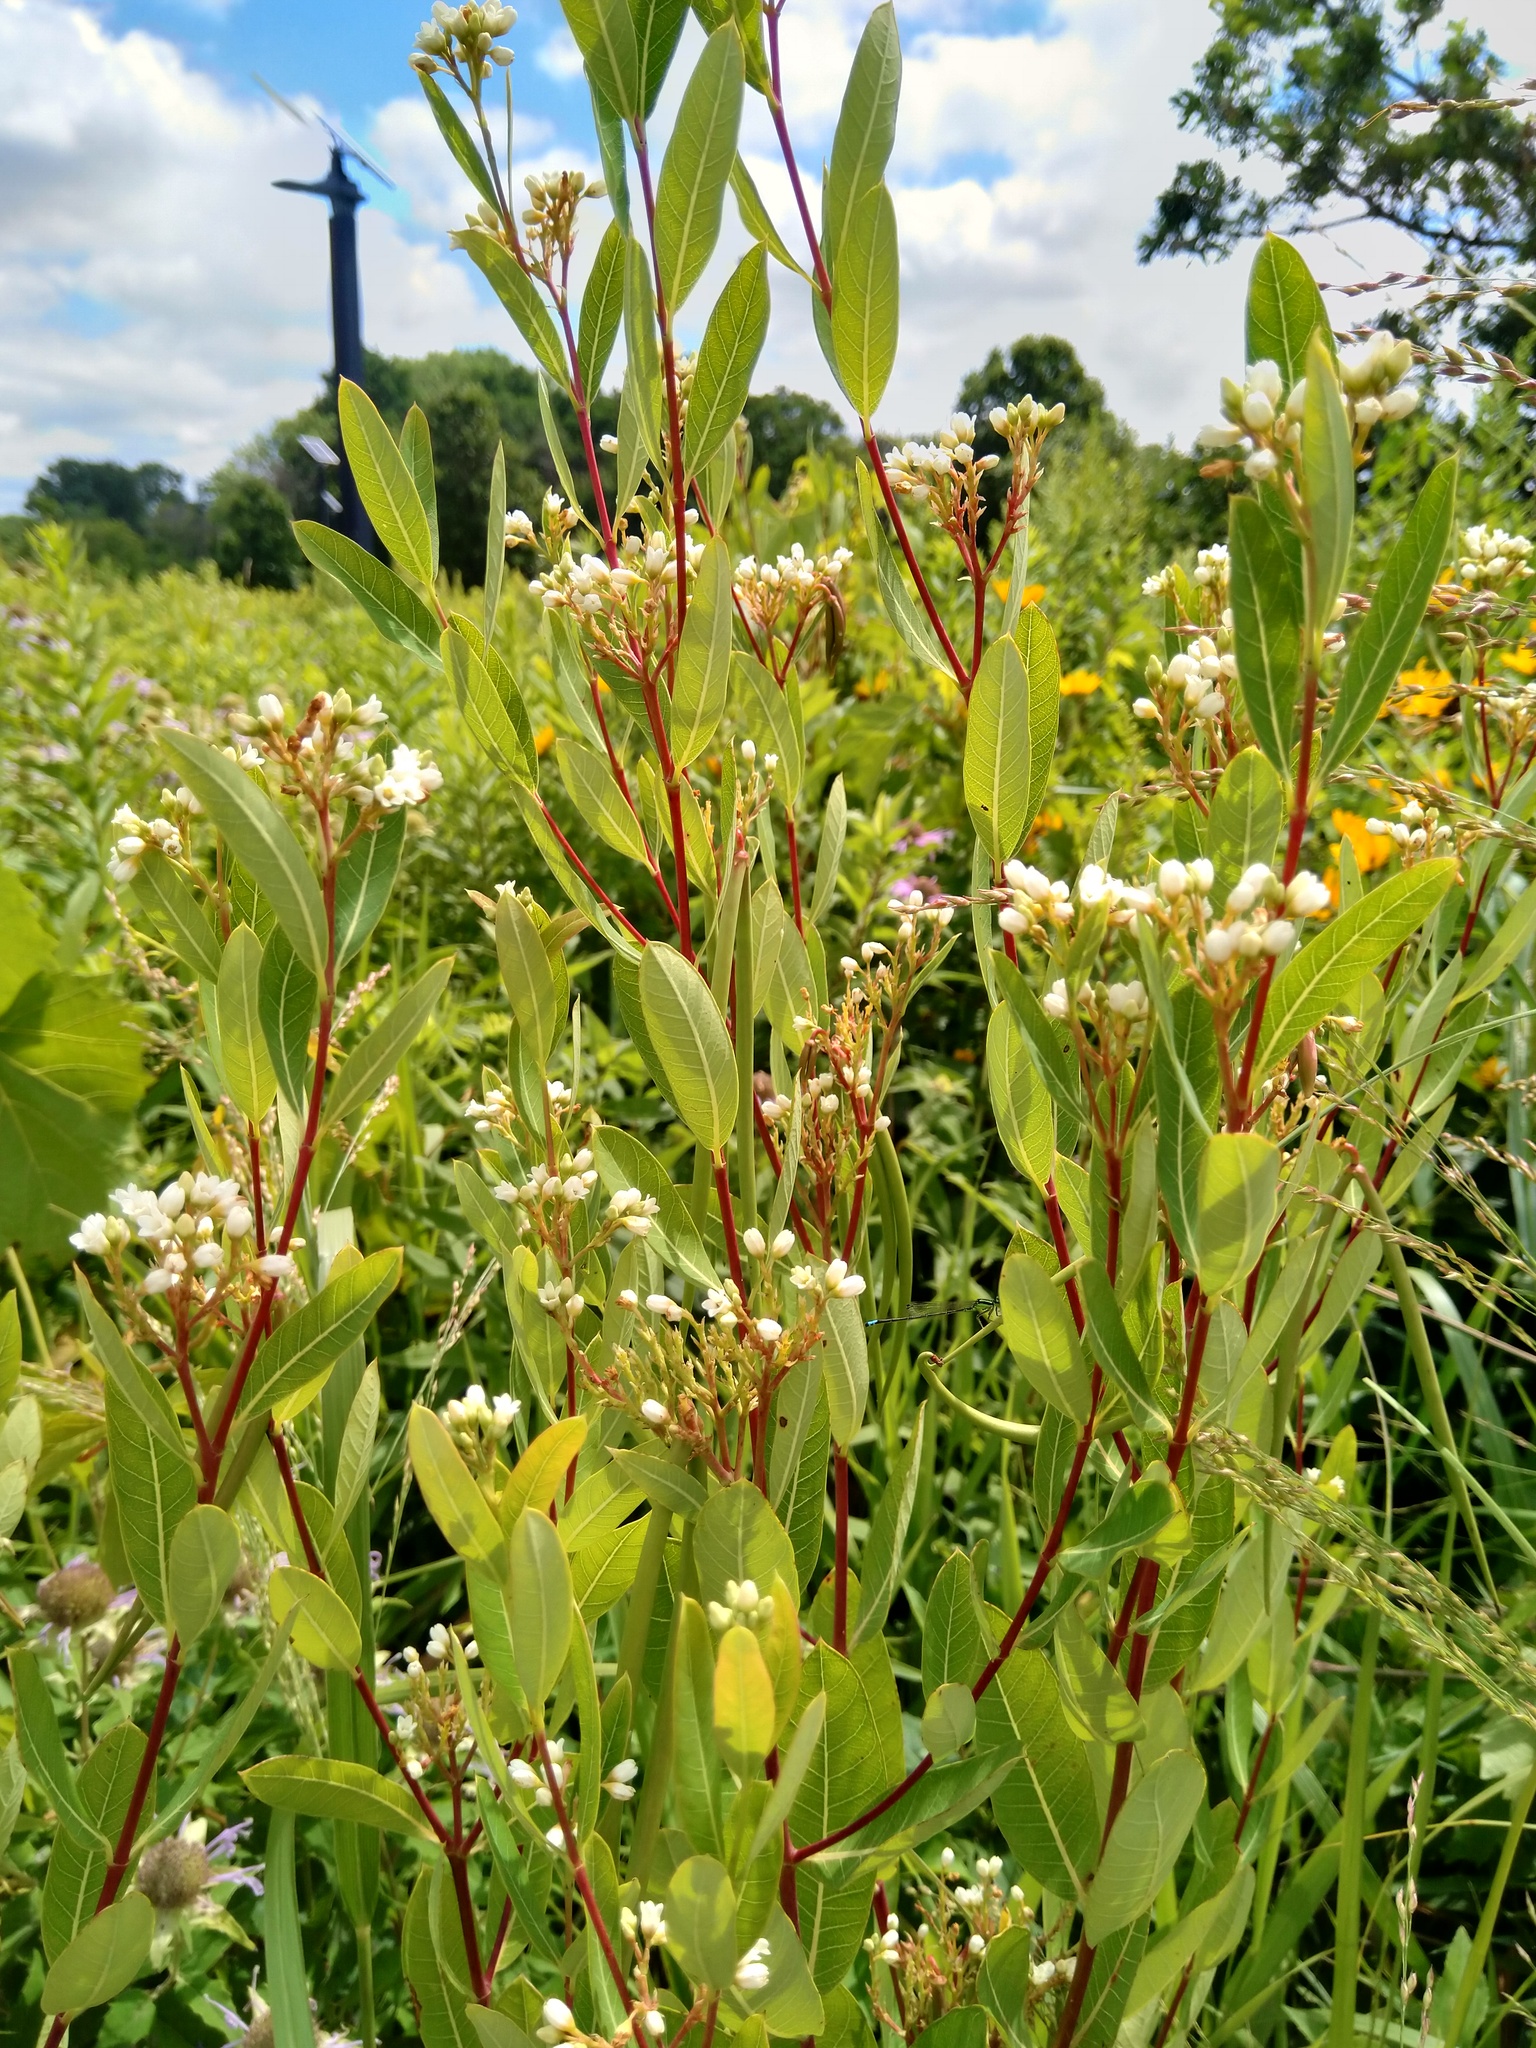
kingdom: Plantae
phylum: Tracheophyta
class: Magnoliopsida
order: Gentianales
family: Apocynaceae
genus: Apocynum
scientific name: Apocynum cannabinum
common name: Hemp dogbane
